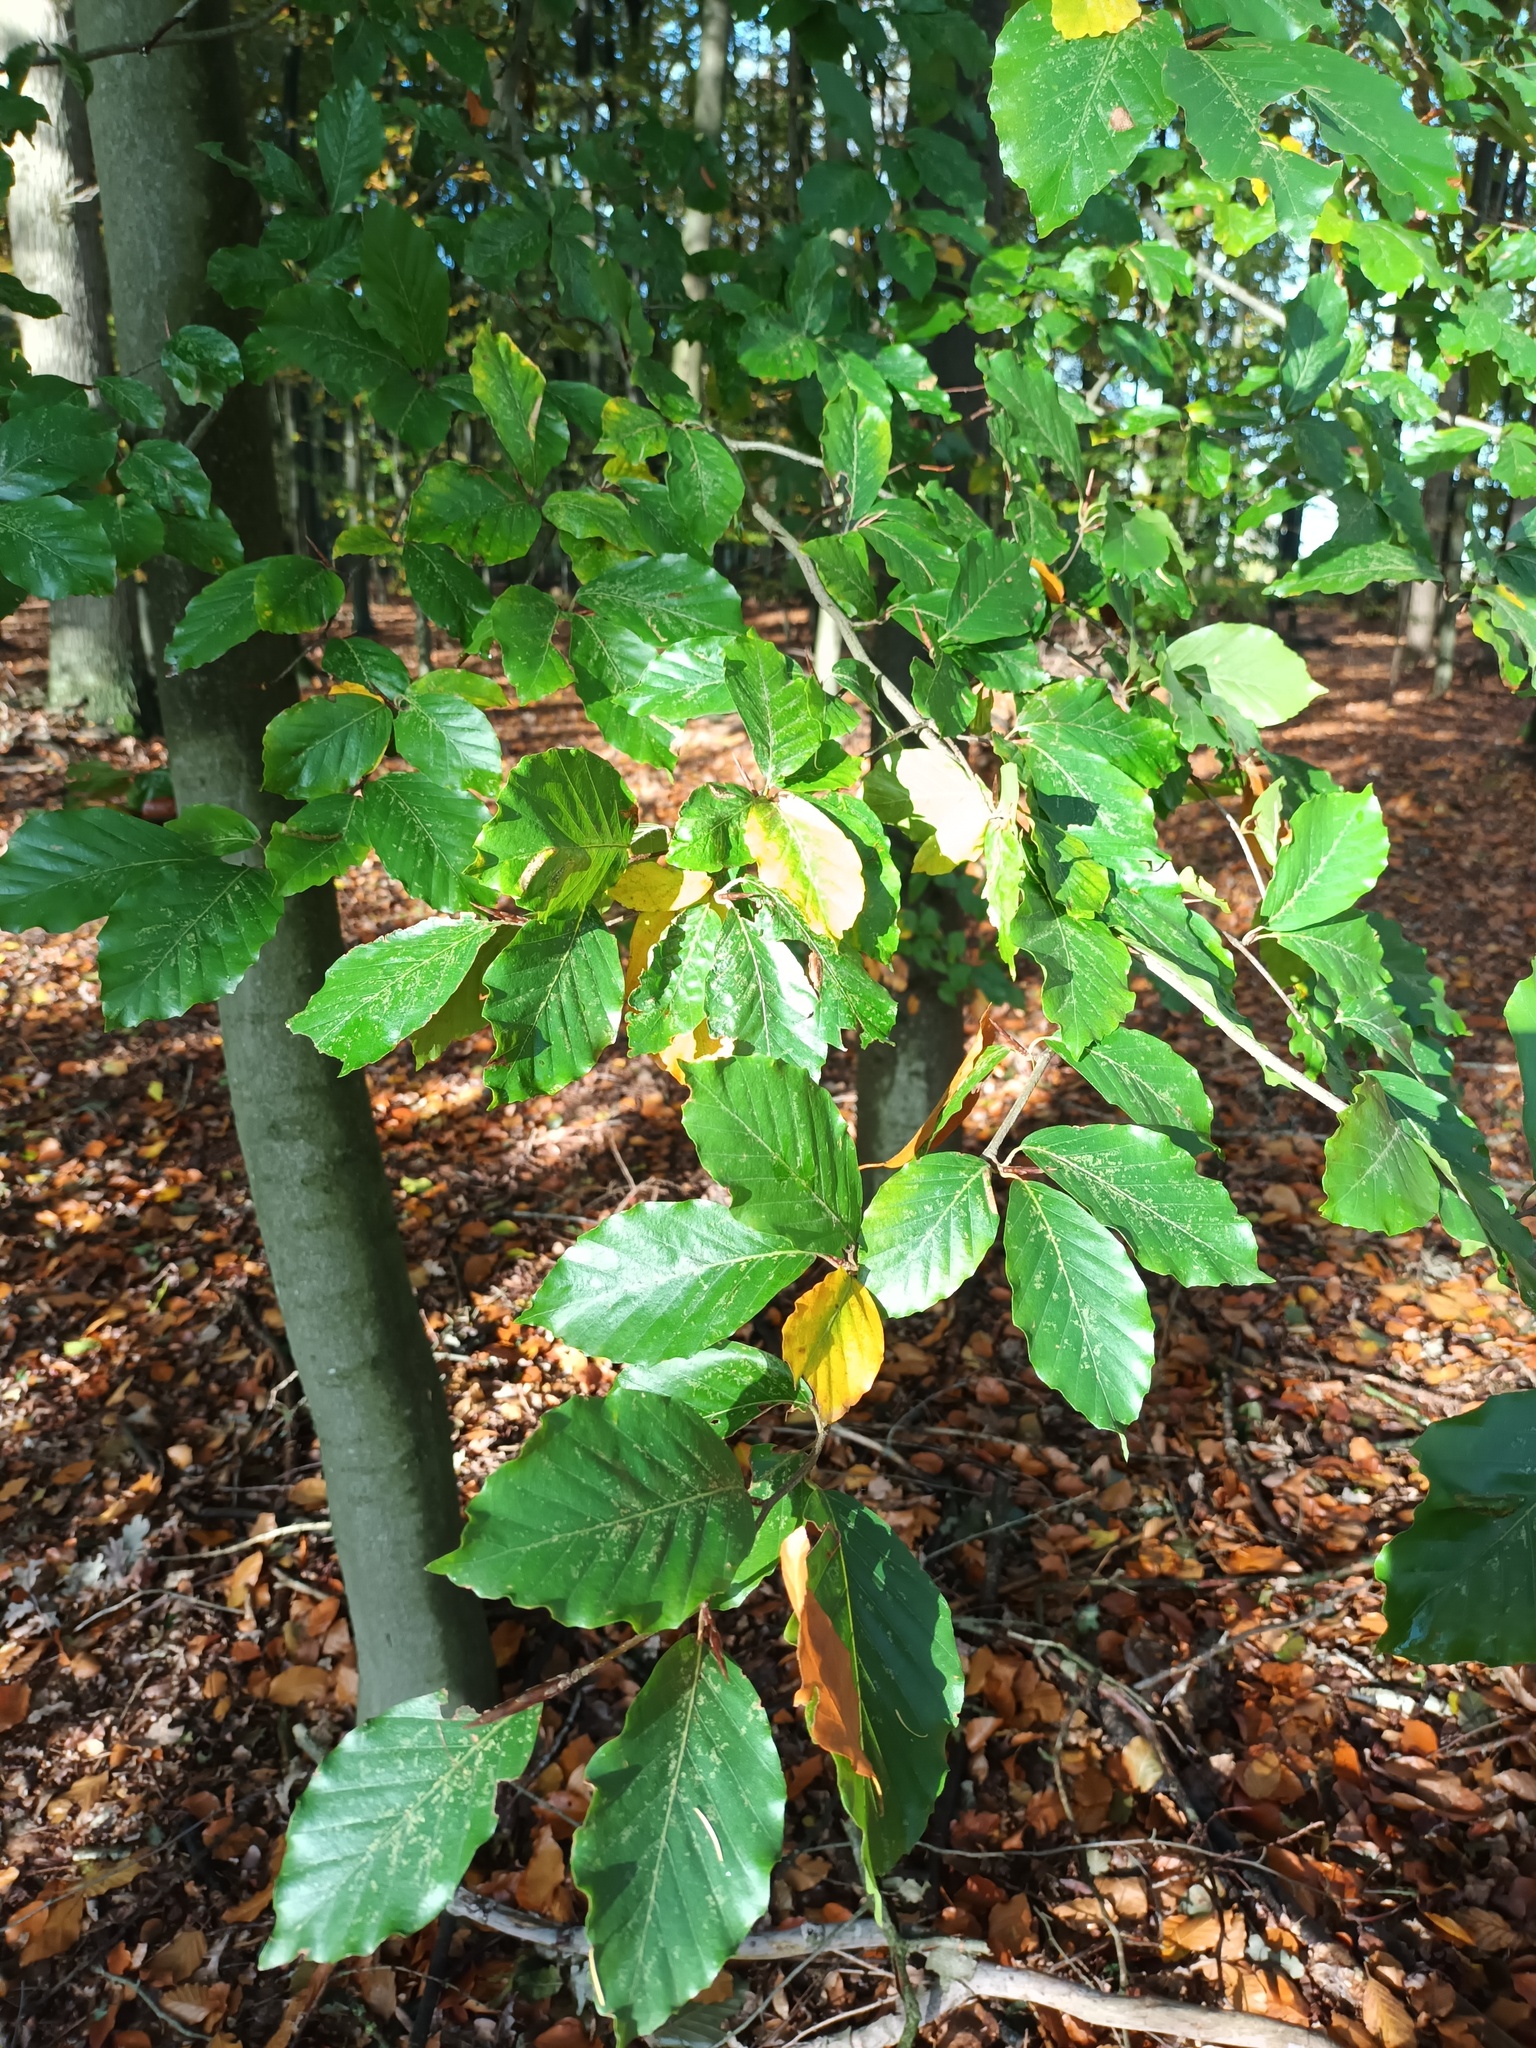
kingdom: Plantae
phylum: Tracheophyta
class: Magnoliopsida
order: Fagales
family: Fagaceae
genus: Fagus
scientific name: Fagus sylvatica
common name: Beech
